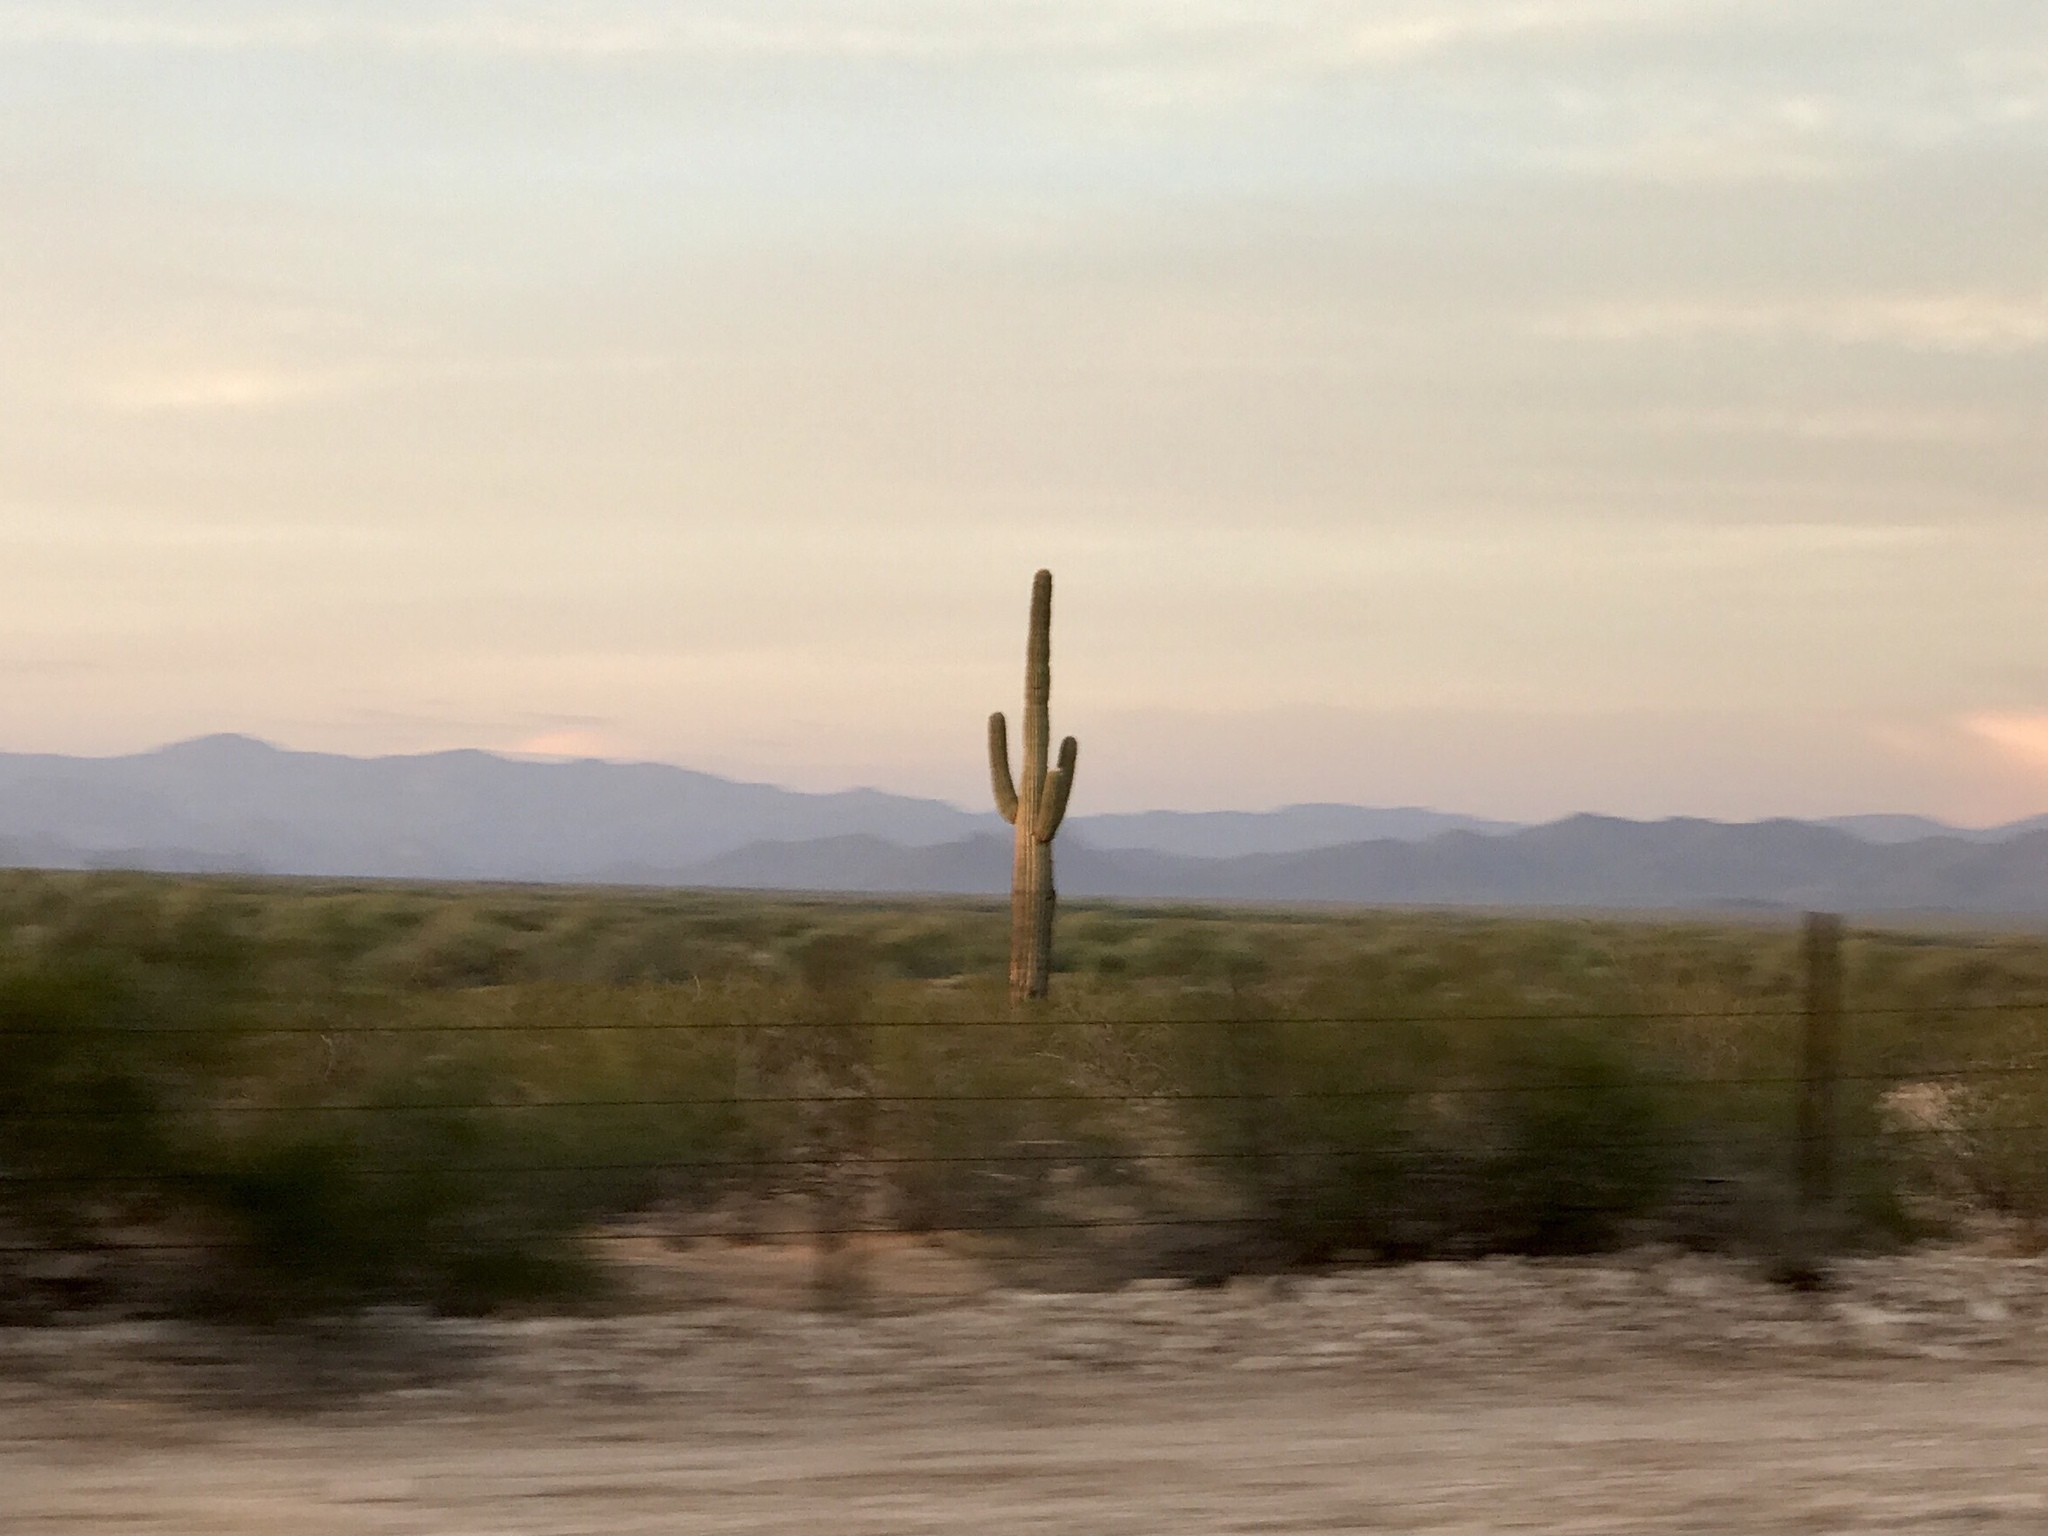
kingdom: Plantae
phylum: Tracheophyta
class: Magnoliopsida
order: Caryophyllales
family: Cactaceae
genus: Carnegiea
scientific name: Carnegiea gigantea
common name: Saguaro
